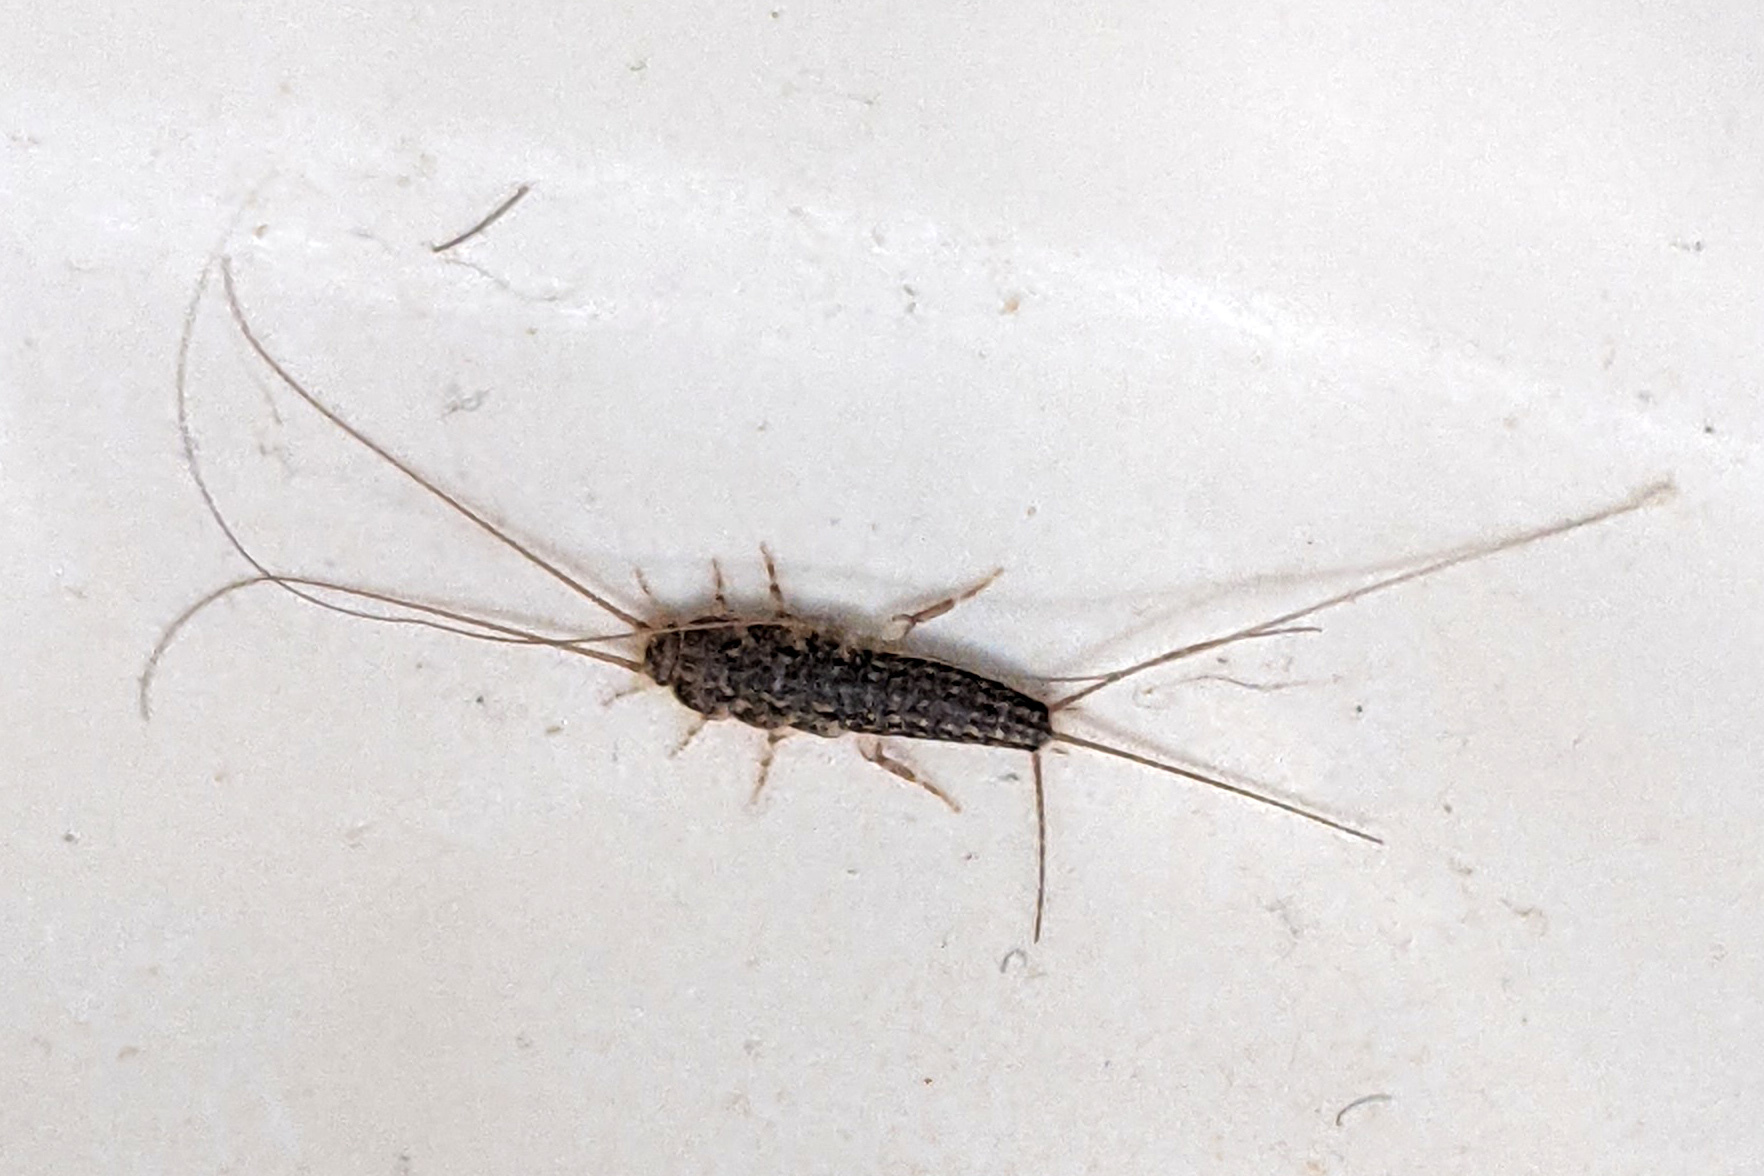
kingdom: Animalia
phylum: Arthropoda
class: Insecta
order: Zygentoma
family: Lepismatidae
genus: Ctenolepisma
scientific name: Ctenolepisma lineata
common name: Four-lined silverfish
